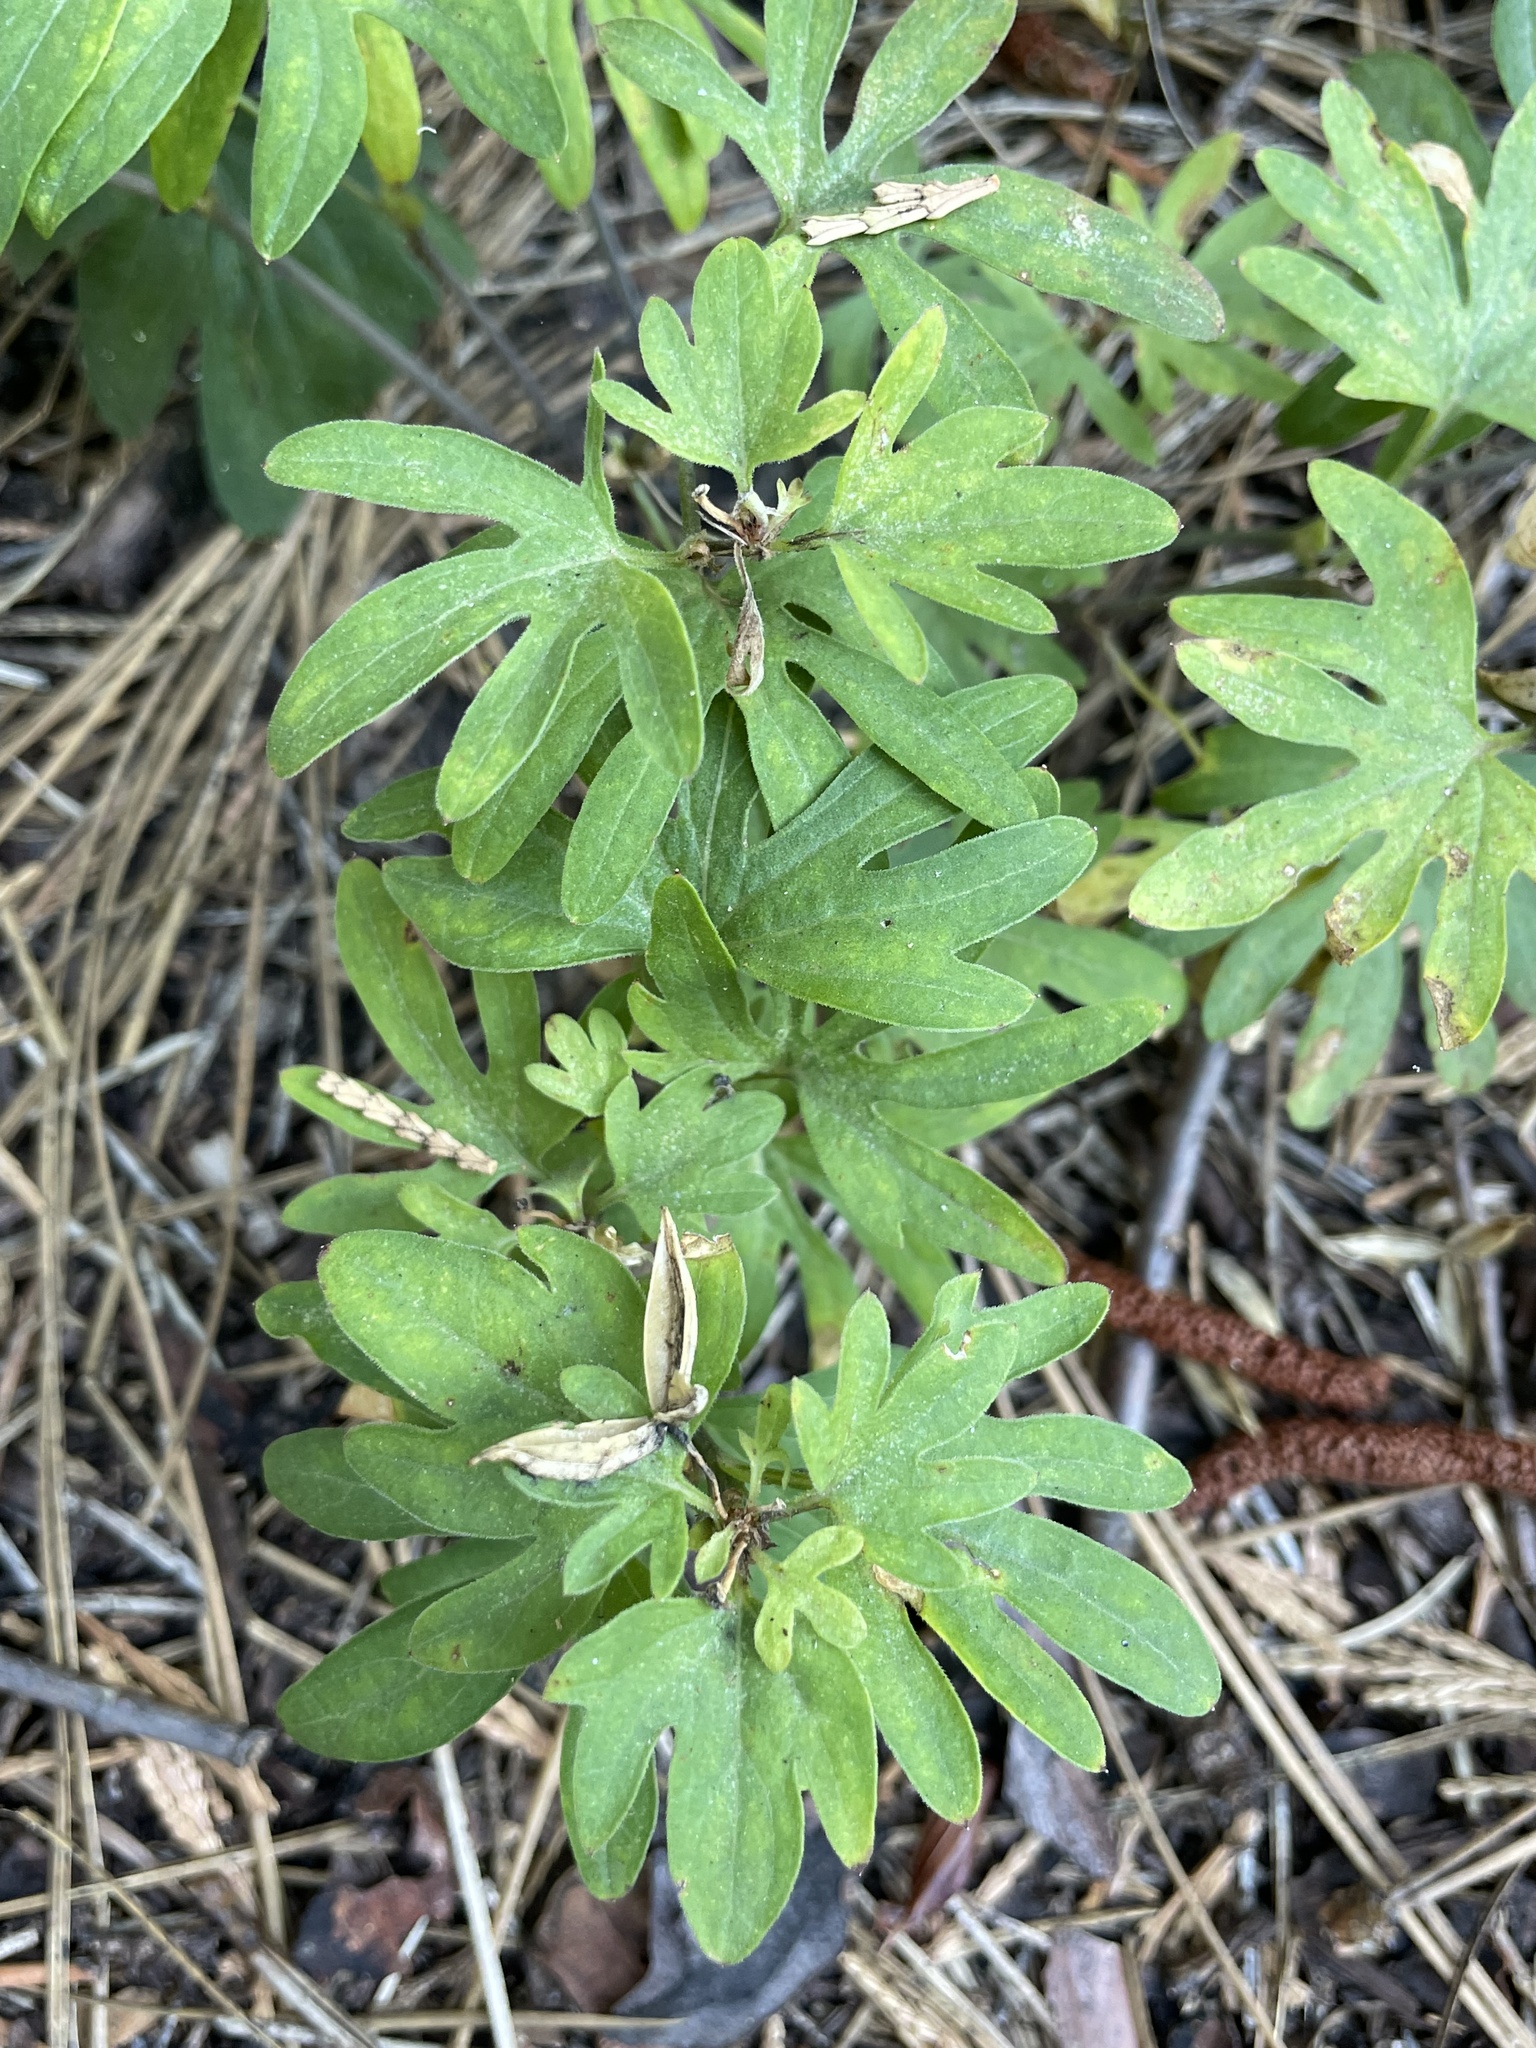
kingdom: Plantae
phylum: Tracheophyta
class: Magnoliopsida
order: Malpighiales
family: Violaceae
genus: Viola
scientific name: Viola lobata
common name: Pine violet
